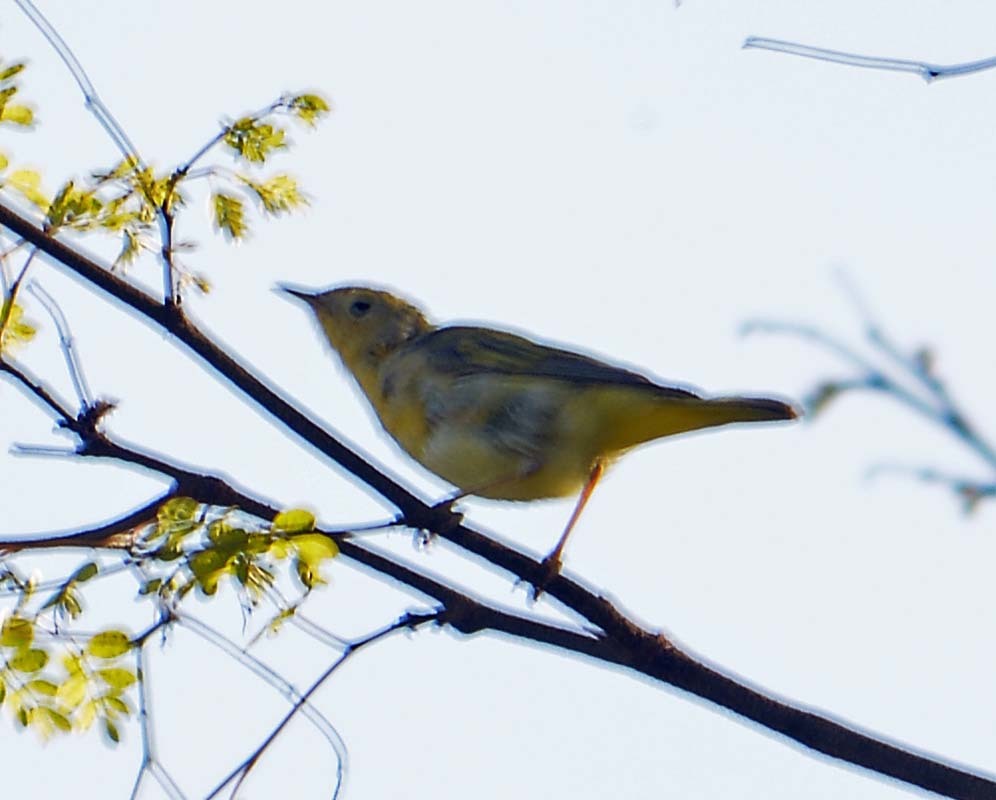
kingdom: Animalia
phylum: Chordata
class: Aves
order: Passeriformes
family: Parulidae
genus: Setophaga
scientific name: Setophaga petechia
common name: Yellow warbler
